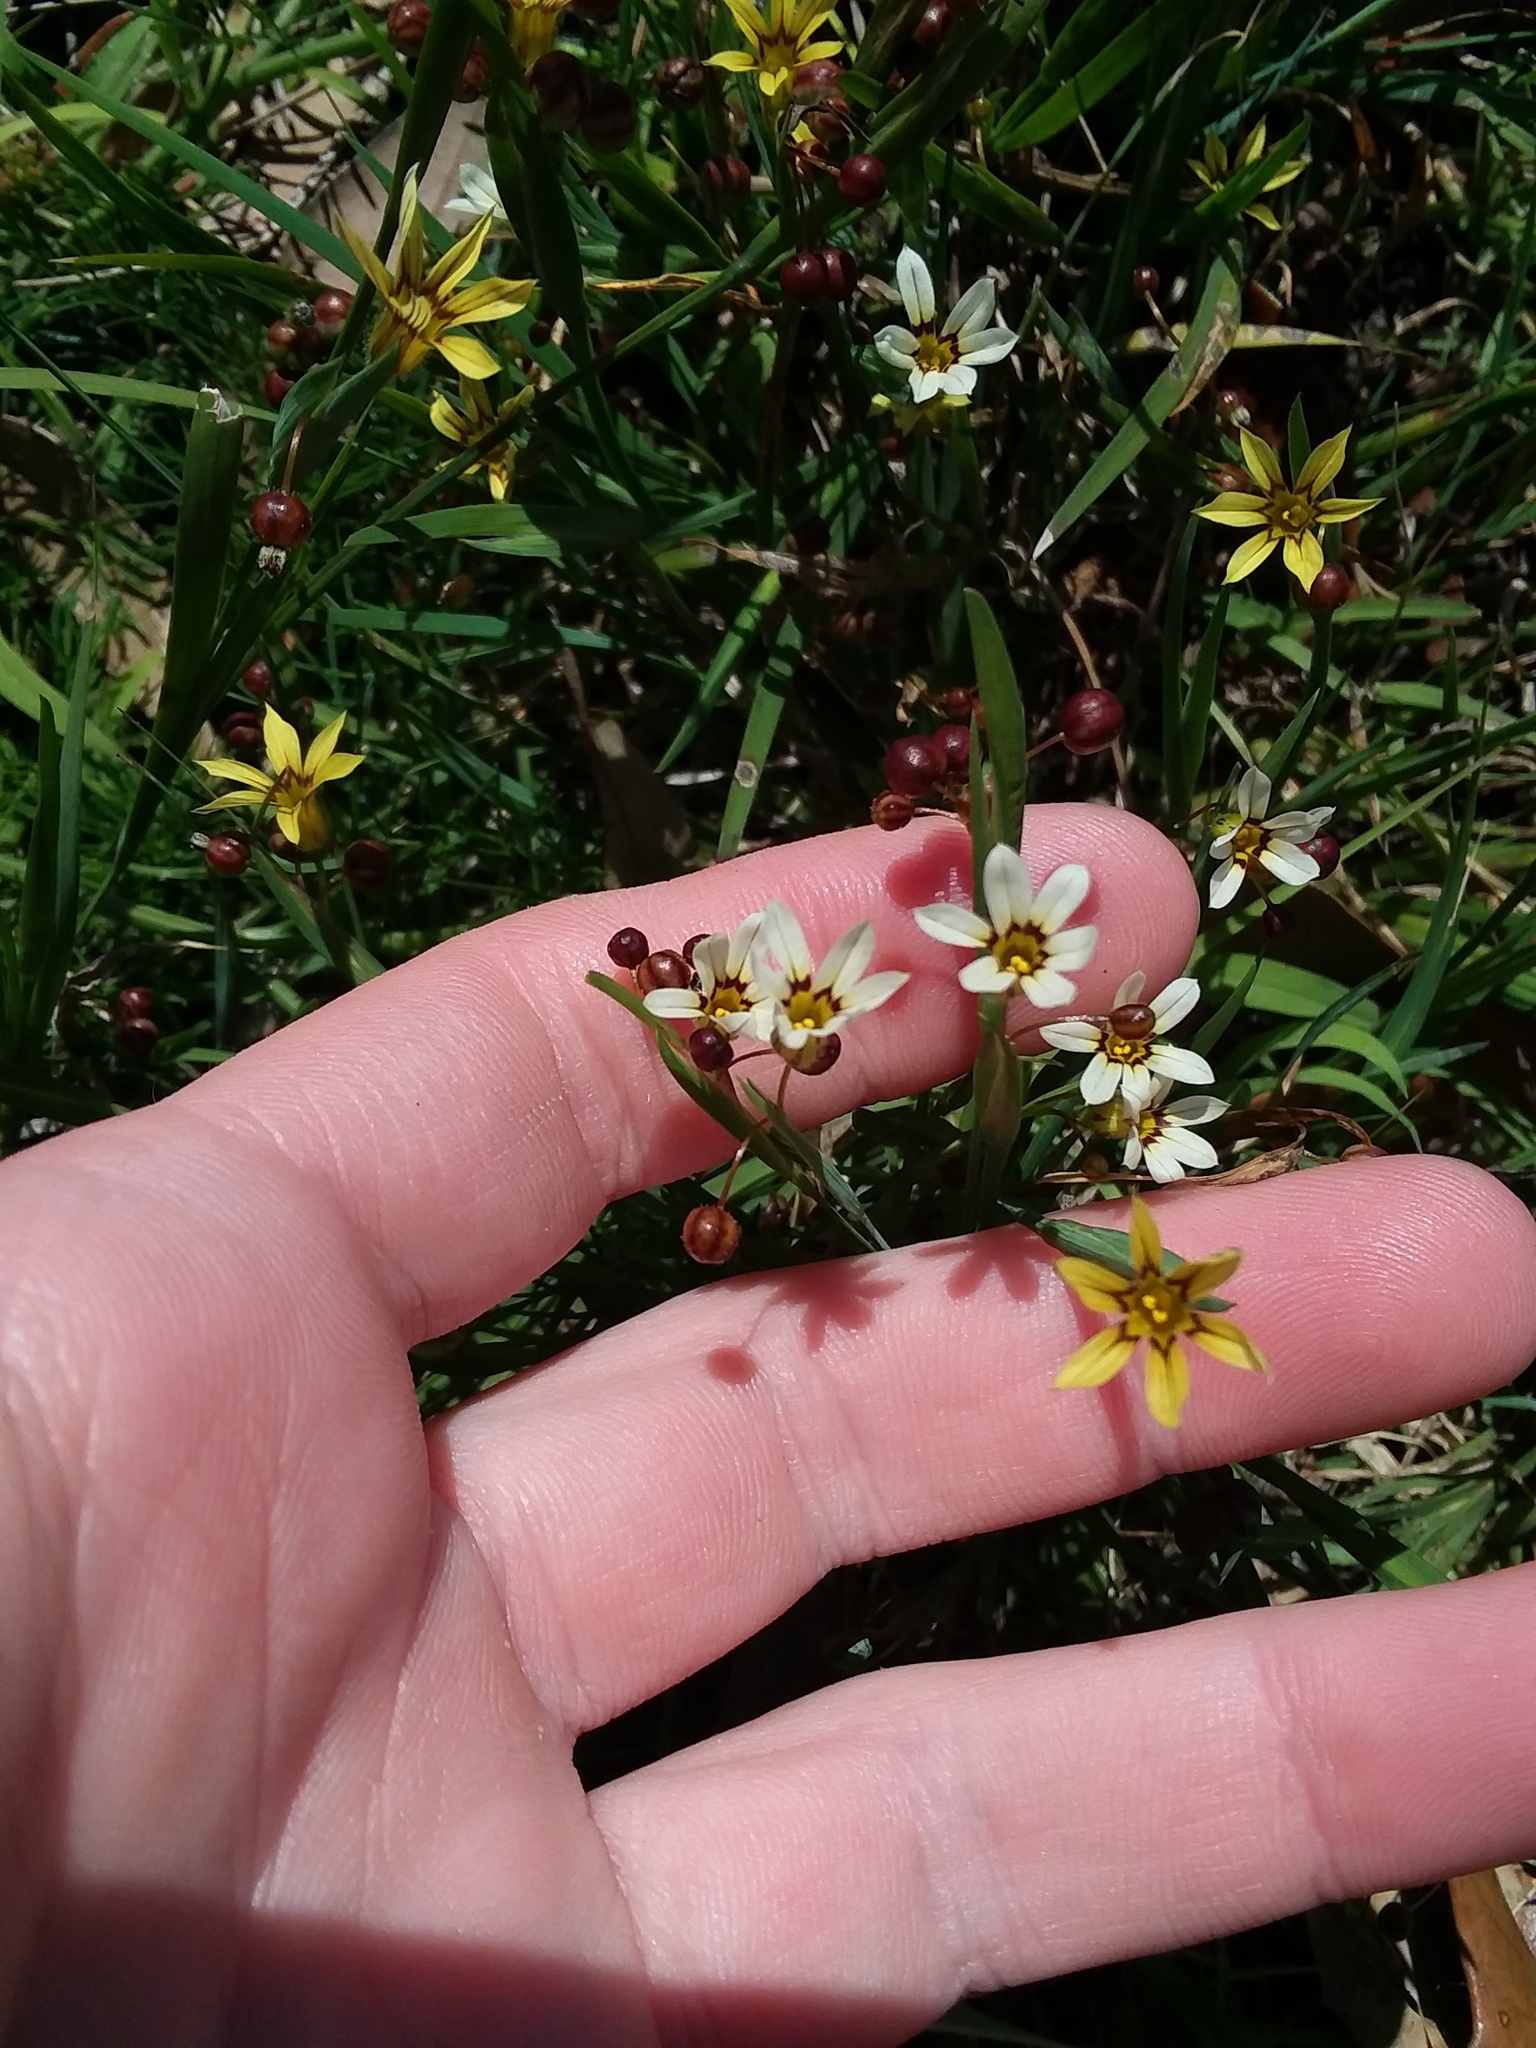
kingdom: Plantae
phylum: Tracheophyta
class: Liliopsida
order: Asparagales
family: Iridaceae
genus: Sisyrinchium
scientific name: Sisyrinchium micranthum
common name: Bermuda pigroot
